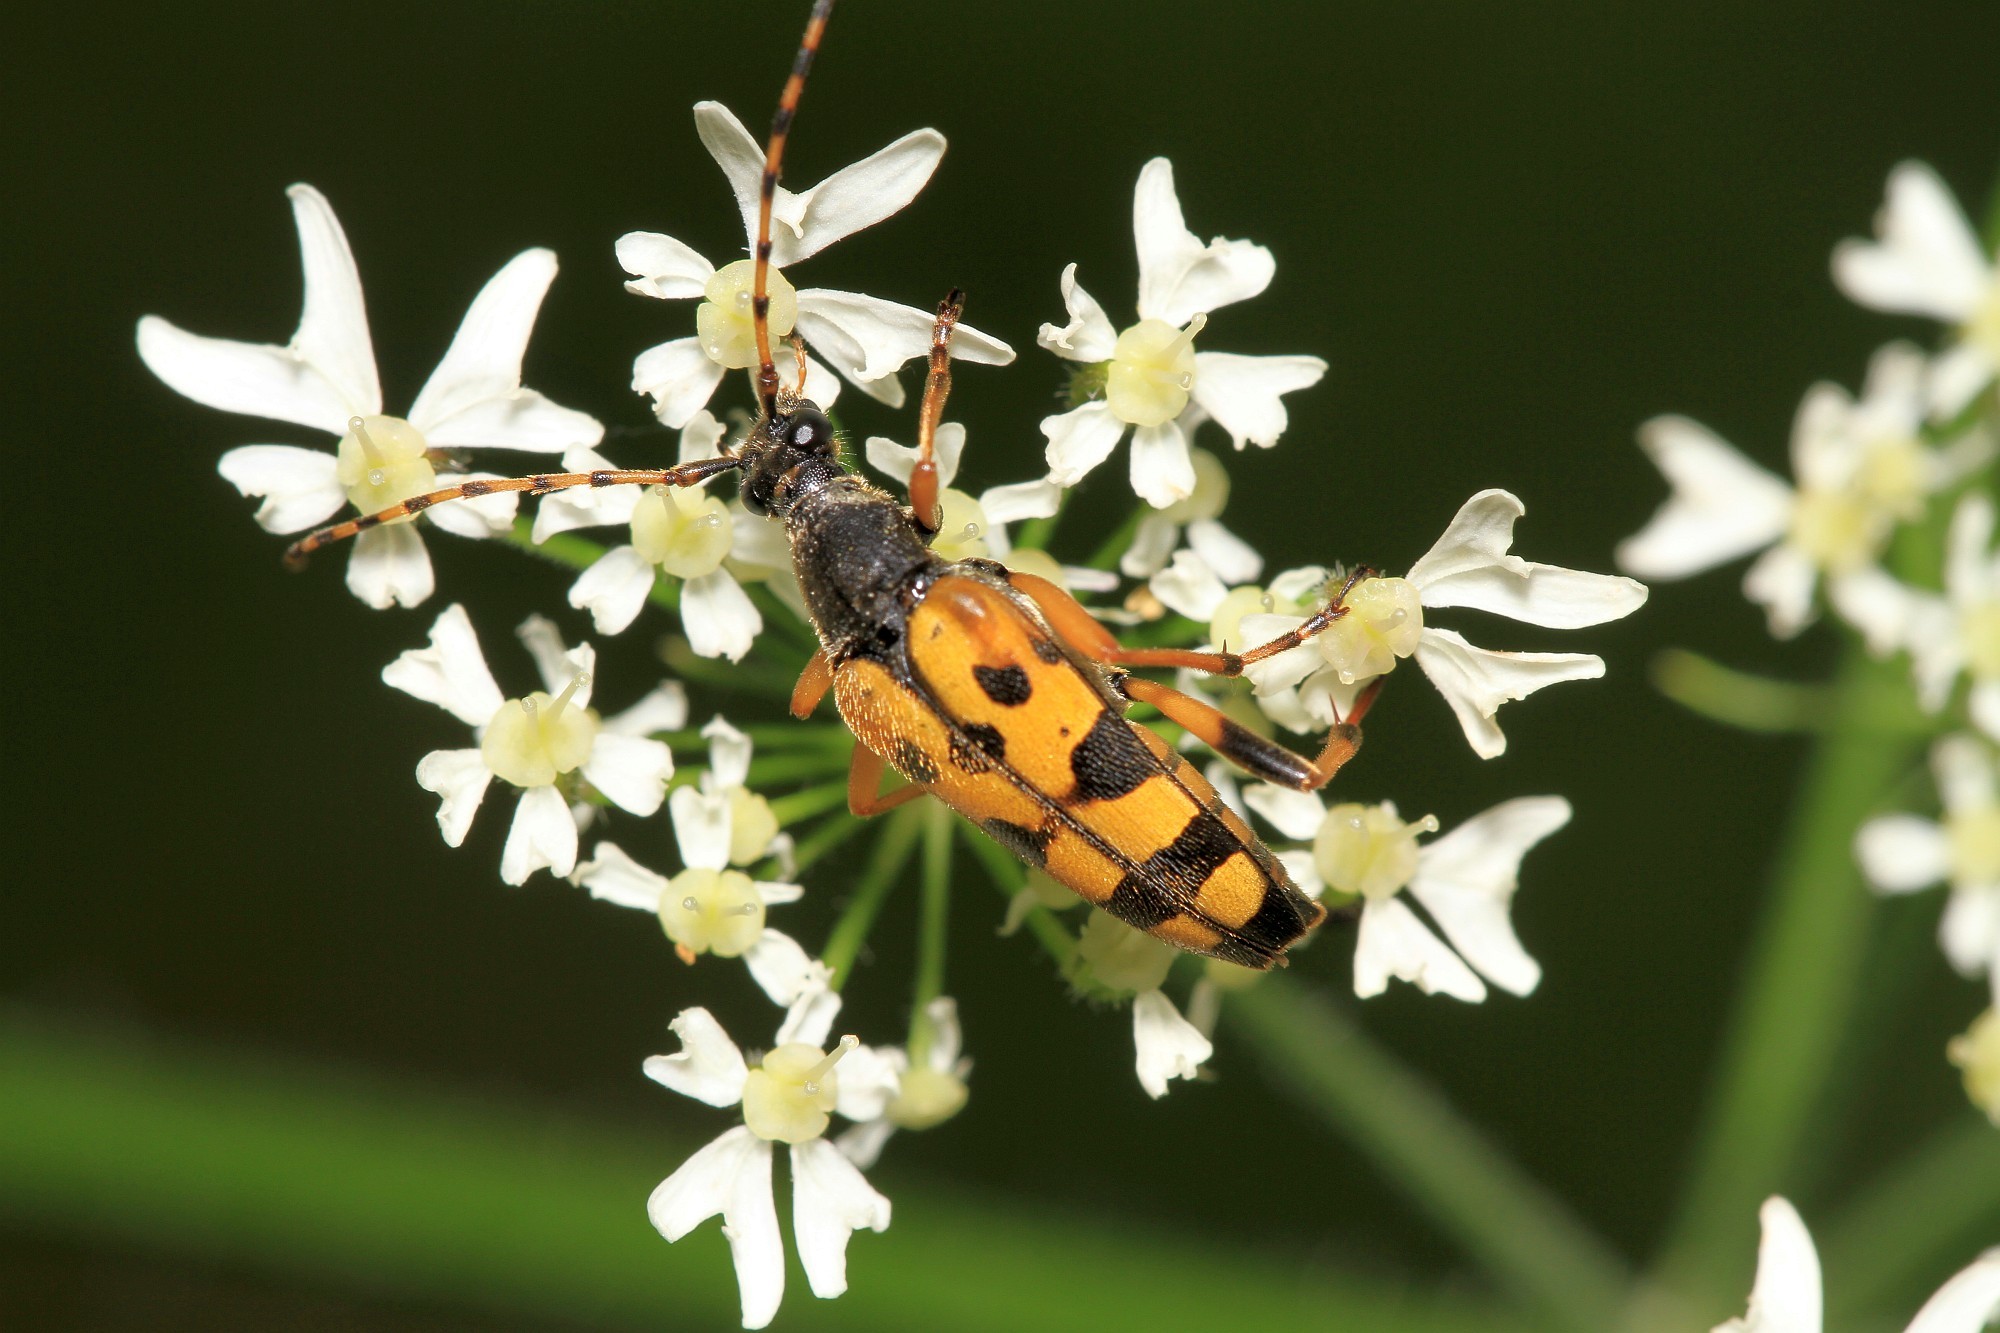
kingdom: Animalia
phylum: Arthropoda
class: Insecta
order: Coleoptera
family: Cerambycidae
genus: Rutpela
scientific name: Rutpela maculata
